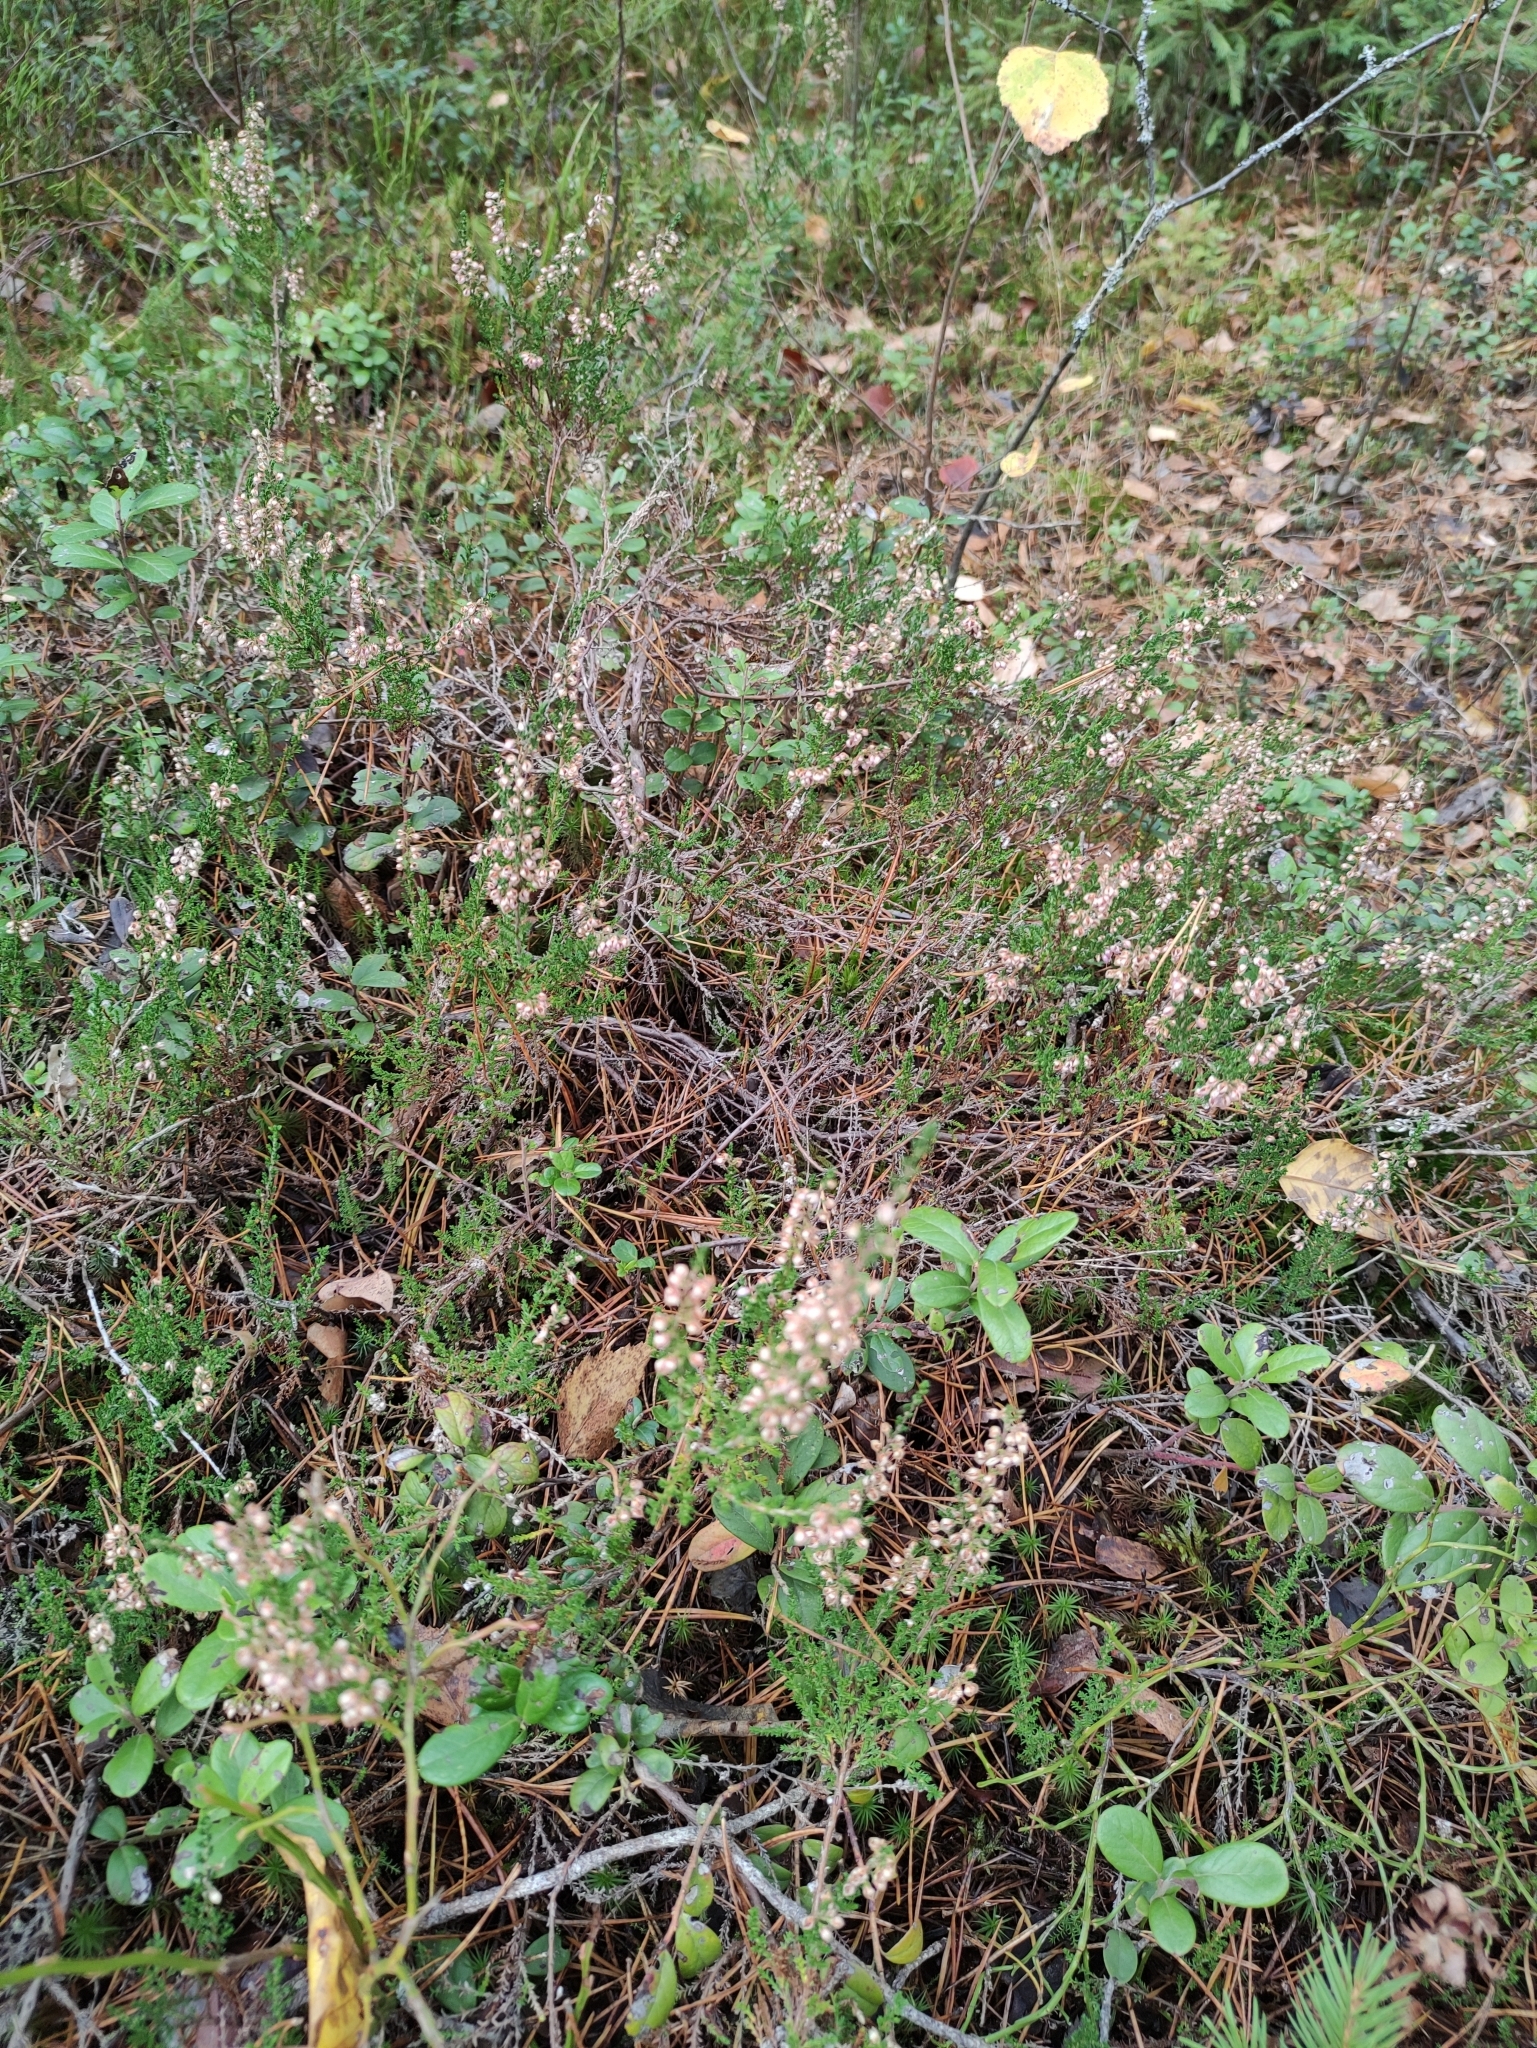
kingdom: Plantae
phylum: Tracheophyta
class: Magnoliopsida
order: Ericales
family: Ericaceae
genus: Calluna
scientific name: Calluna vulgaris
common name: Heather
